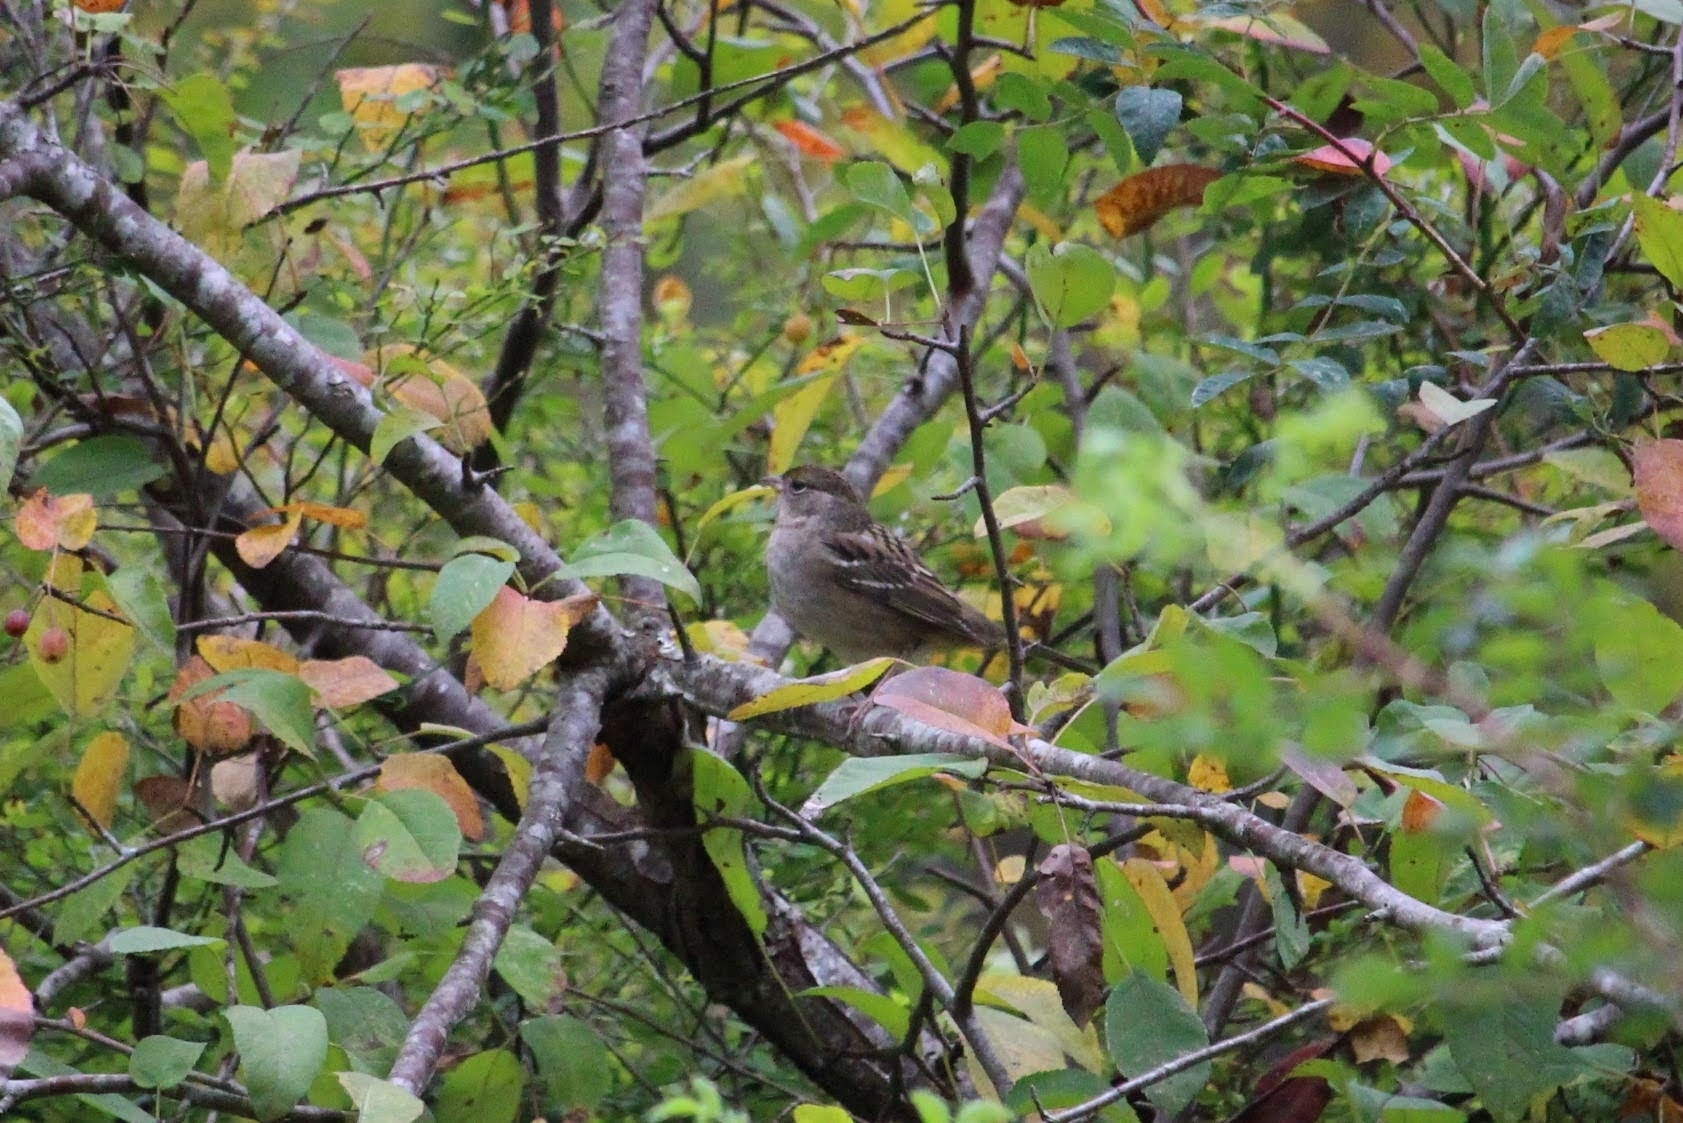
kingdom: Animalia
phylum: Chordata
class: Aves
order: Passeriformes
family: Passerellidae
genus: Zonotrichia
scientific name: Zonotrichia atricapilla
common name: Golden-crowned sparrow
